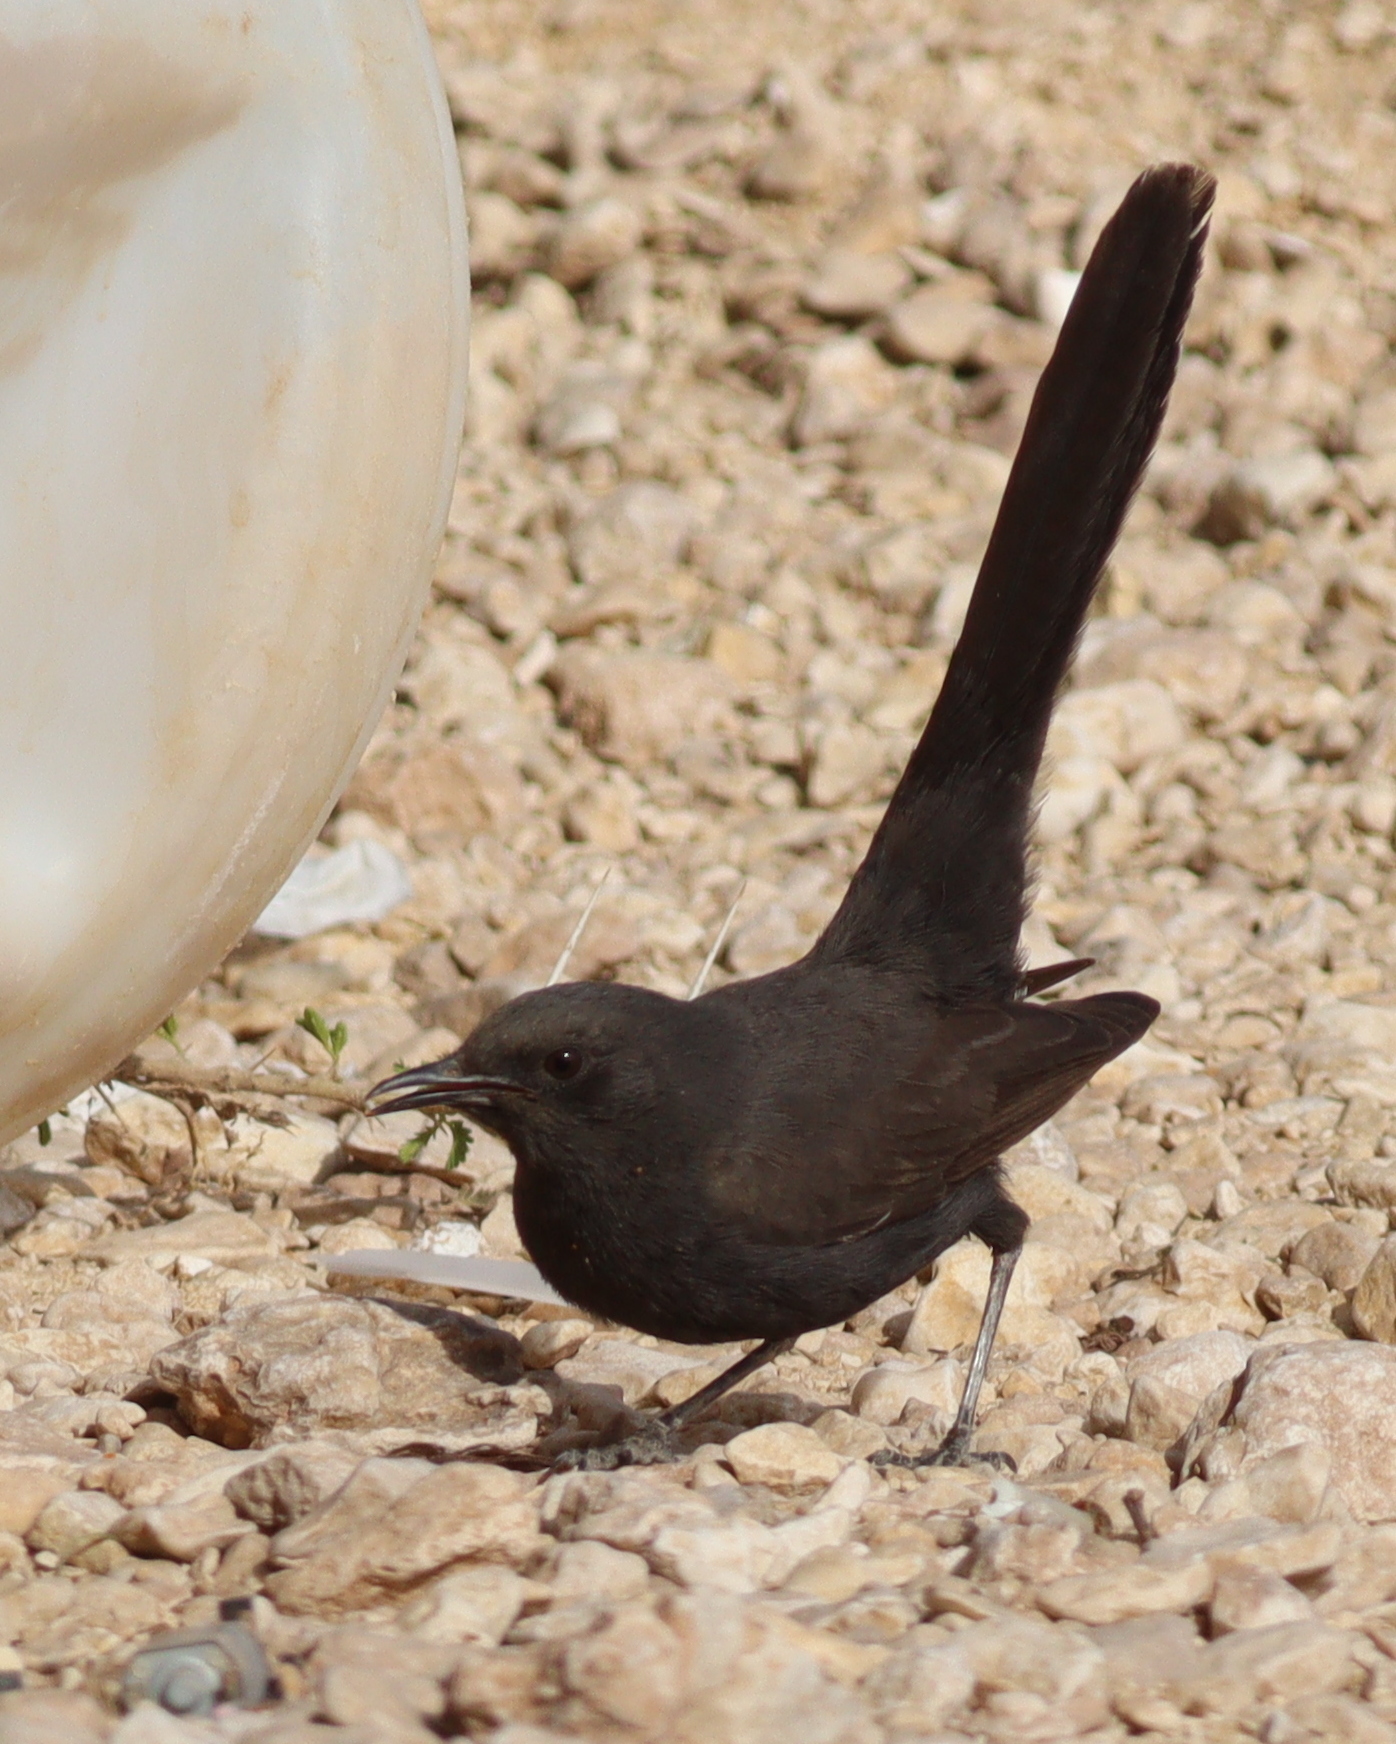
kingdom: Animalia
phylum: Chordata
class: Aves
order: Passeriformes
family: Muscicapidae
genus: Cercotrichas
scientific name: Cercotrichas podobe
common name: Black scrub robin
